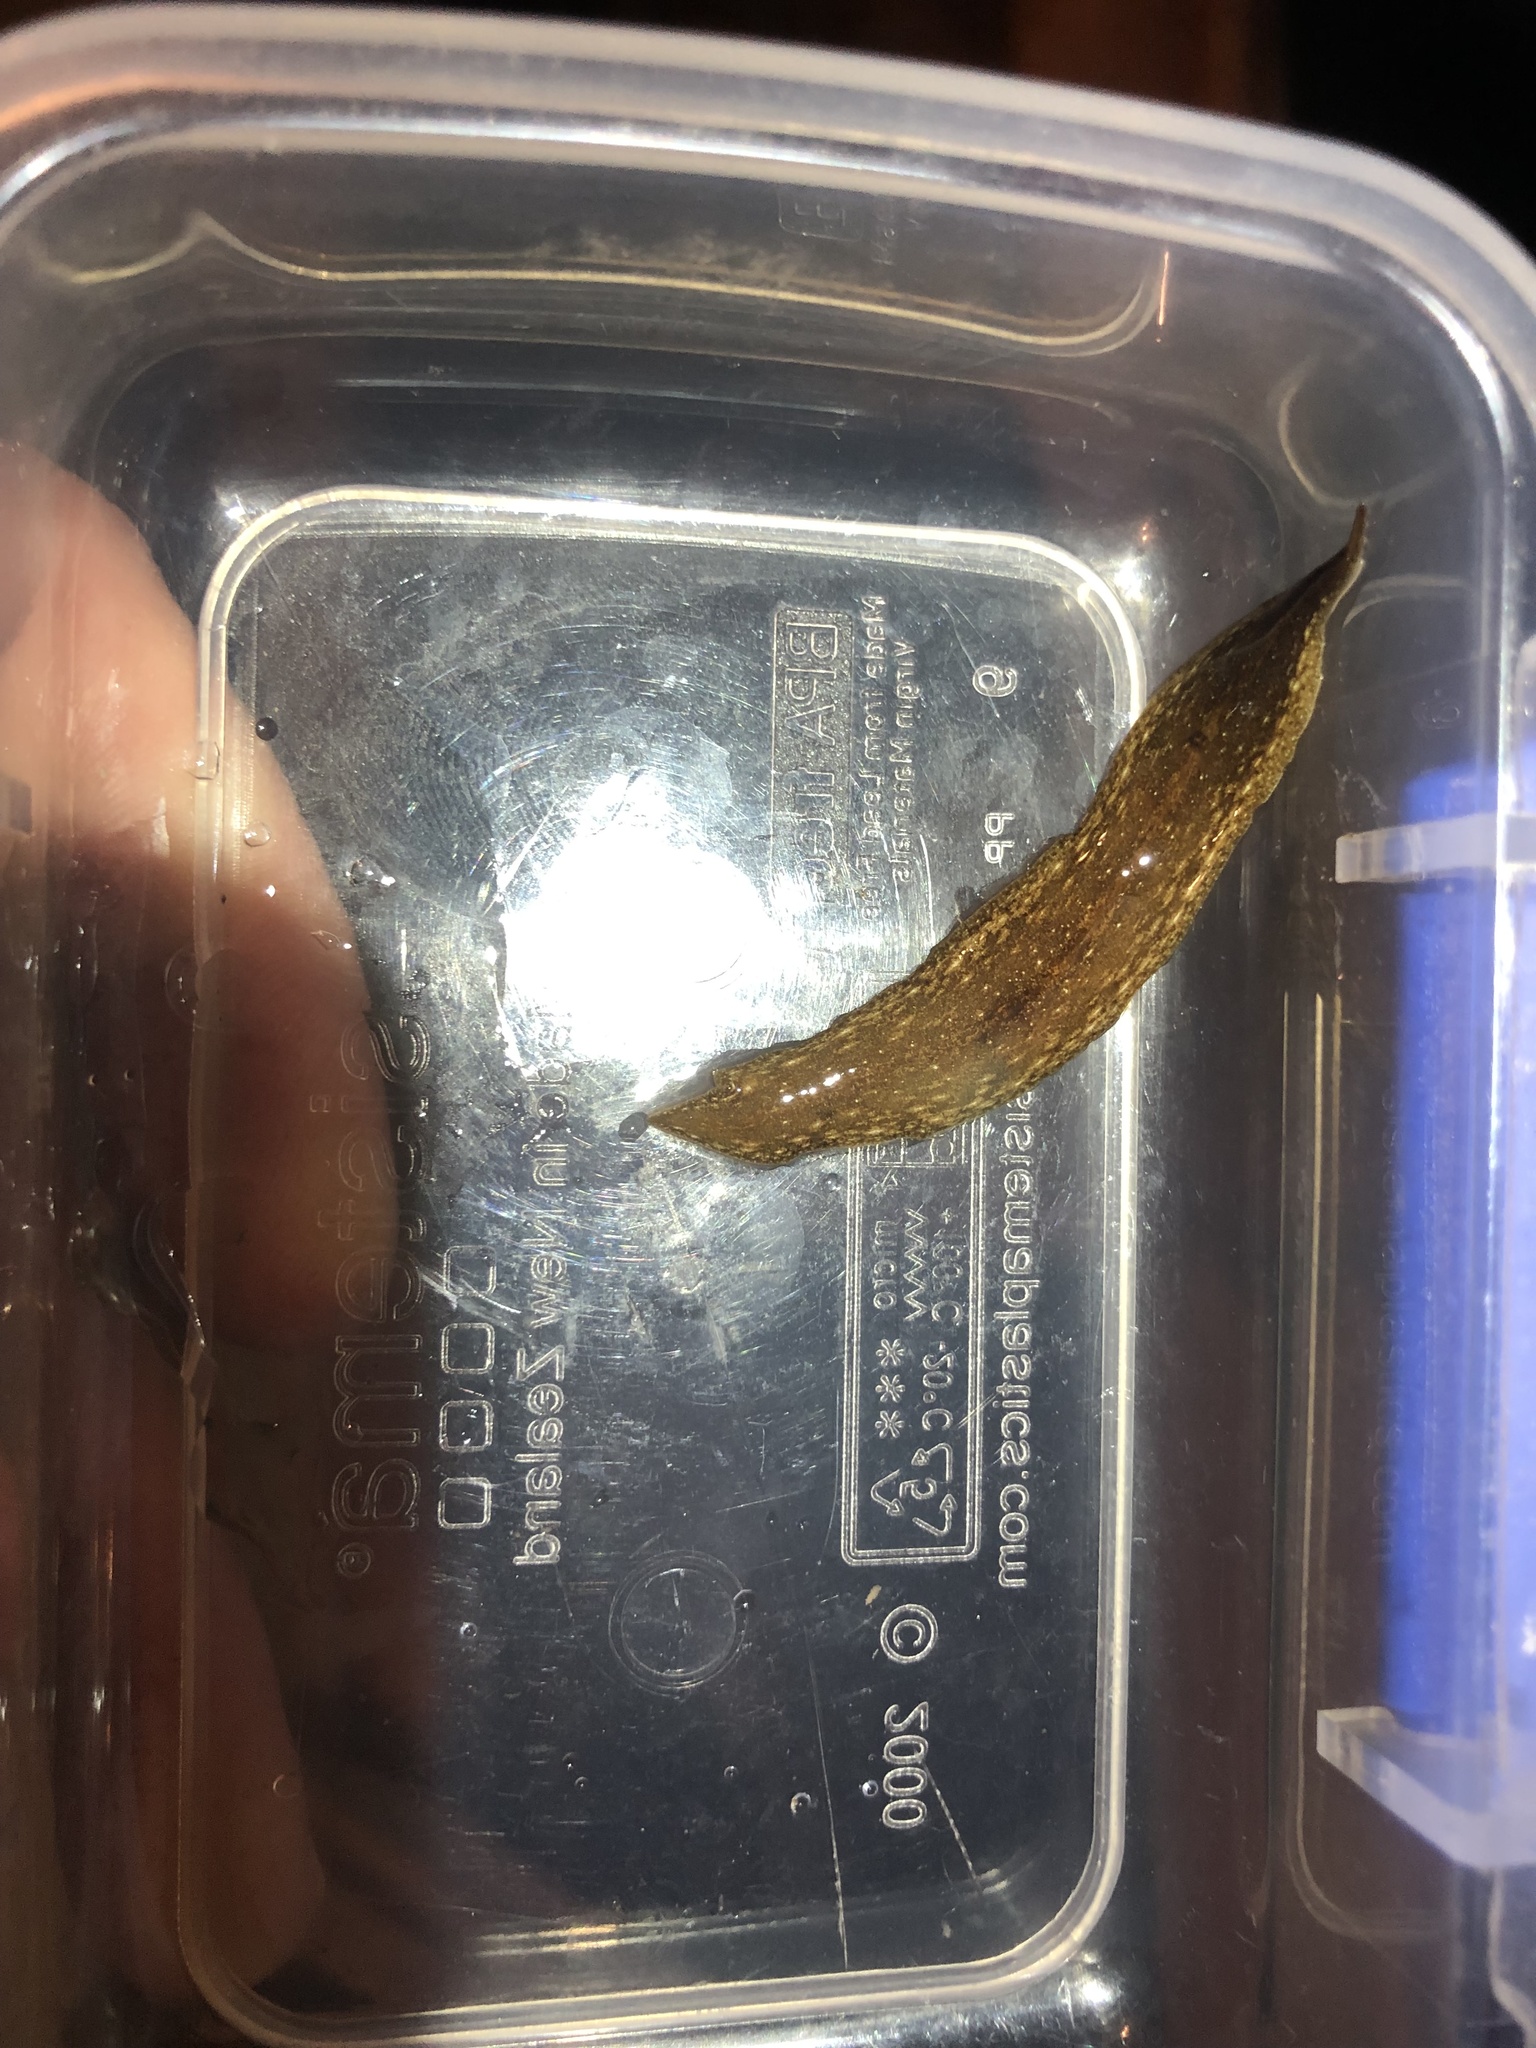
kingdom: Animalia
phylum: Platyhelminthes
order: Tricladida
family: Geoplanidae
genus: Newzealandia
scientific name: Newzealandia graffii
